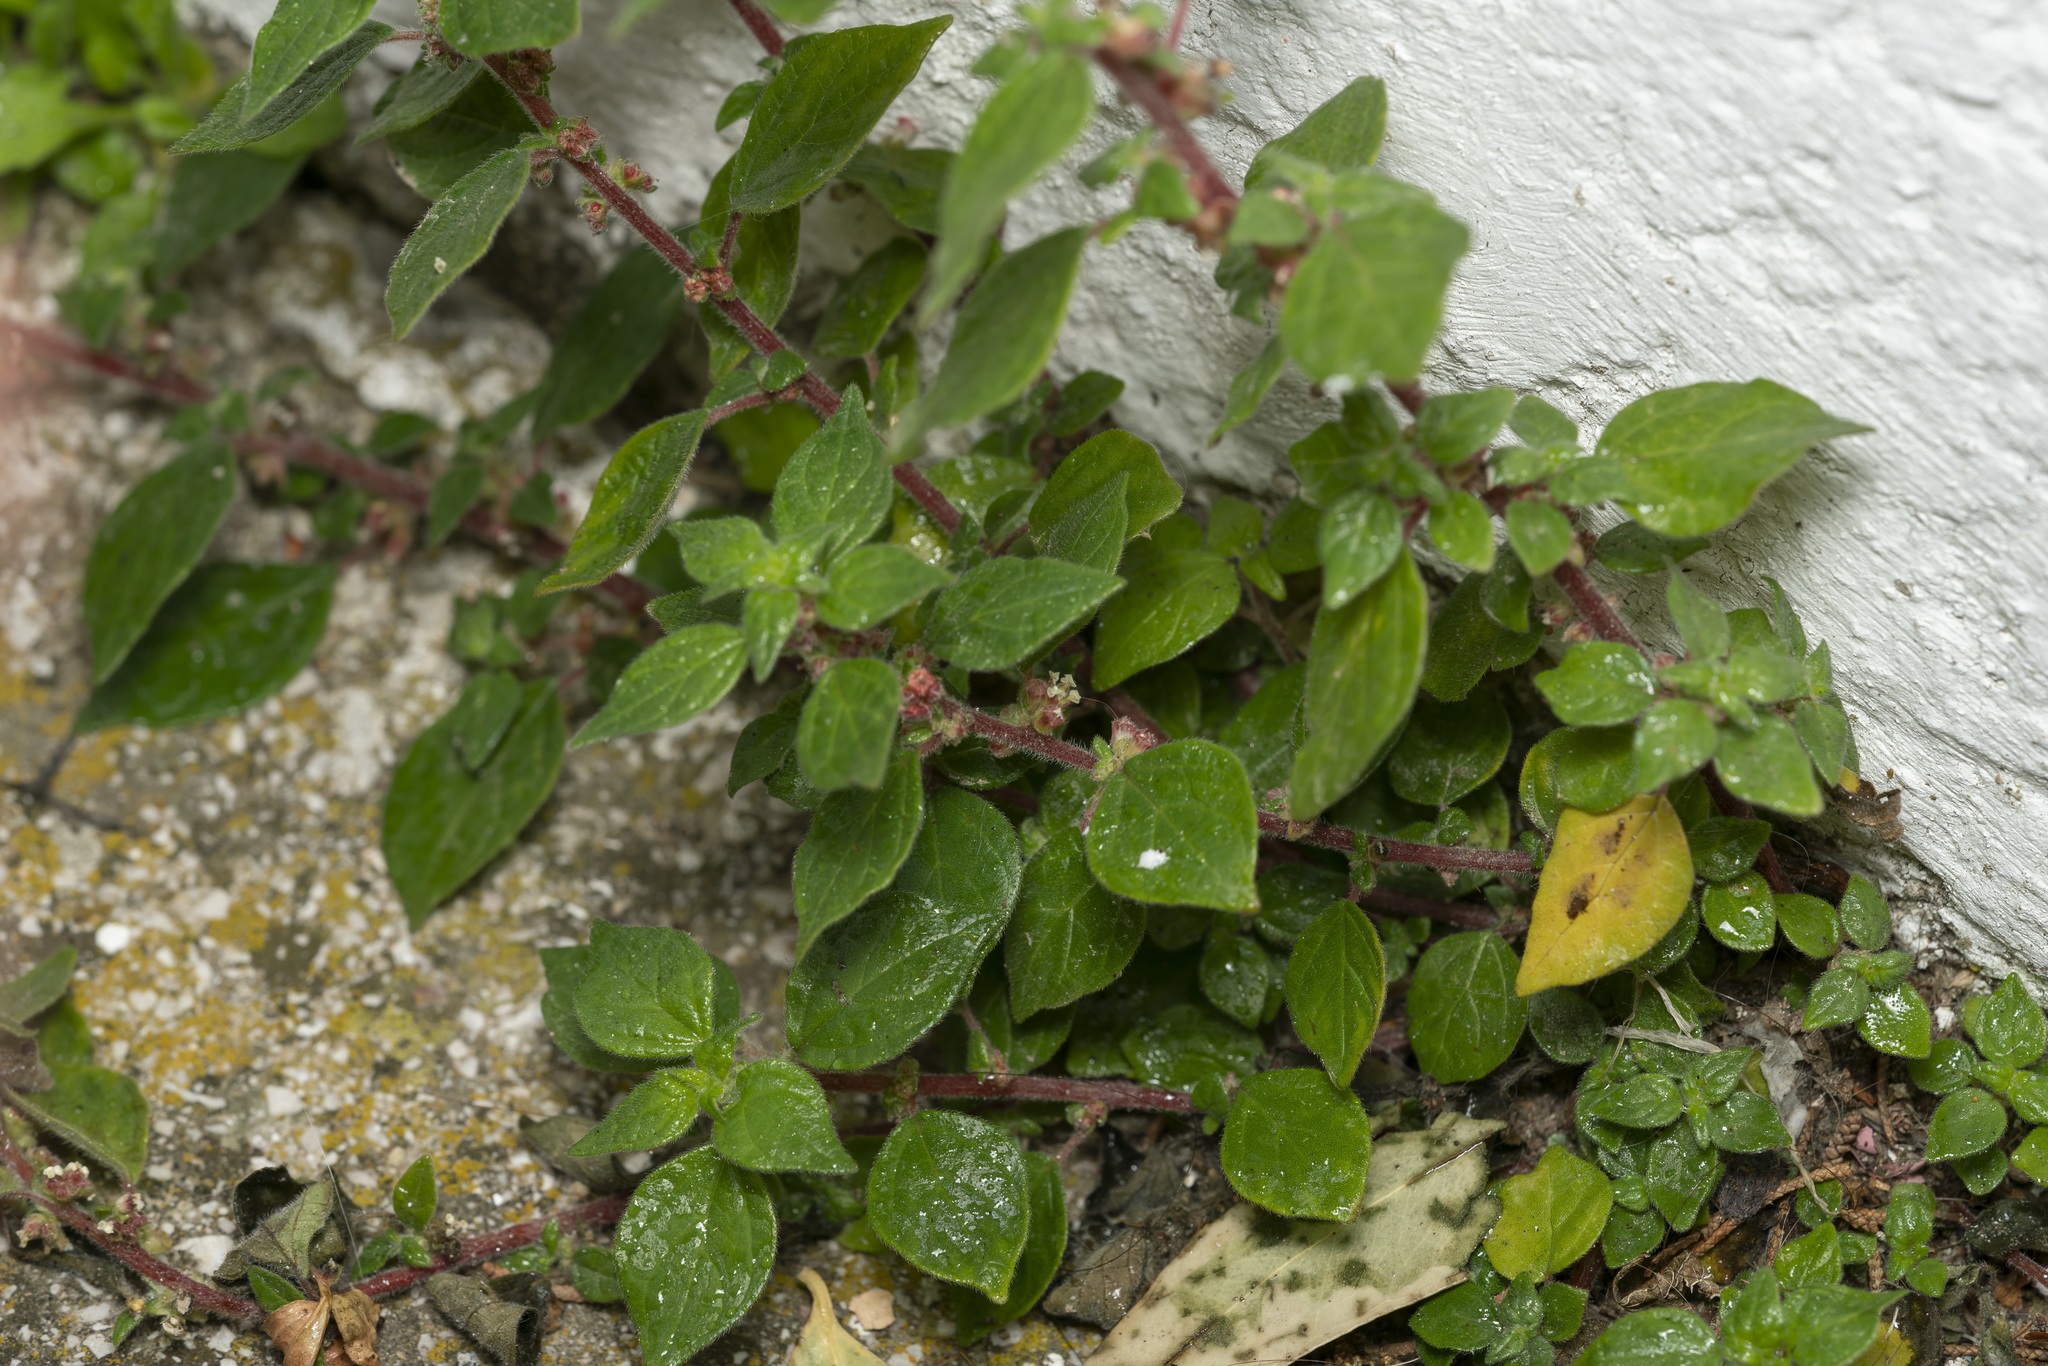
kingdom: Plantae
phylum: Tracheophyta
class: Magnoliopsida
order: Rosales
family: Urticaceae
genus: Parietaria
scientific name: Parietaria judaica
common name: Pellitory-of-the-wall
